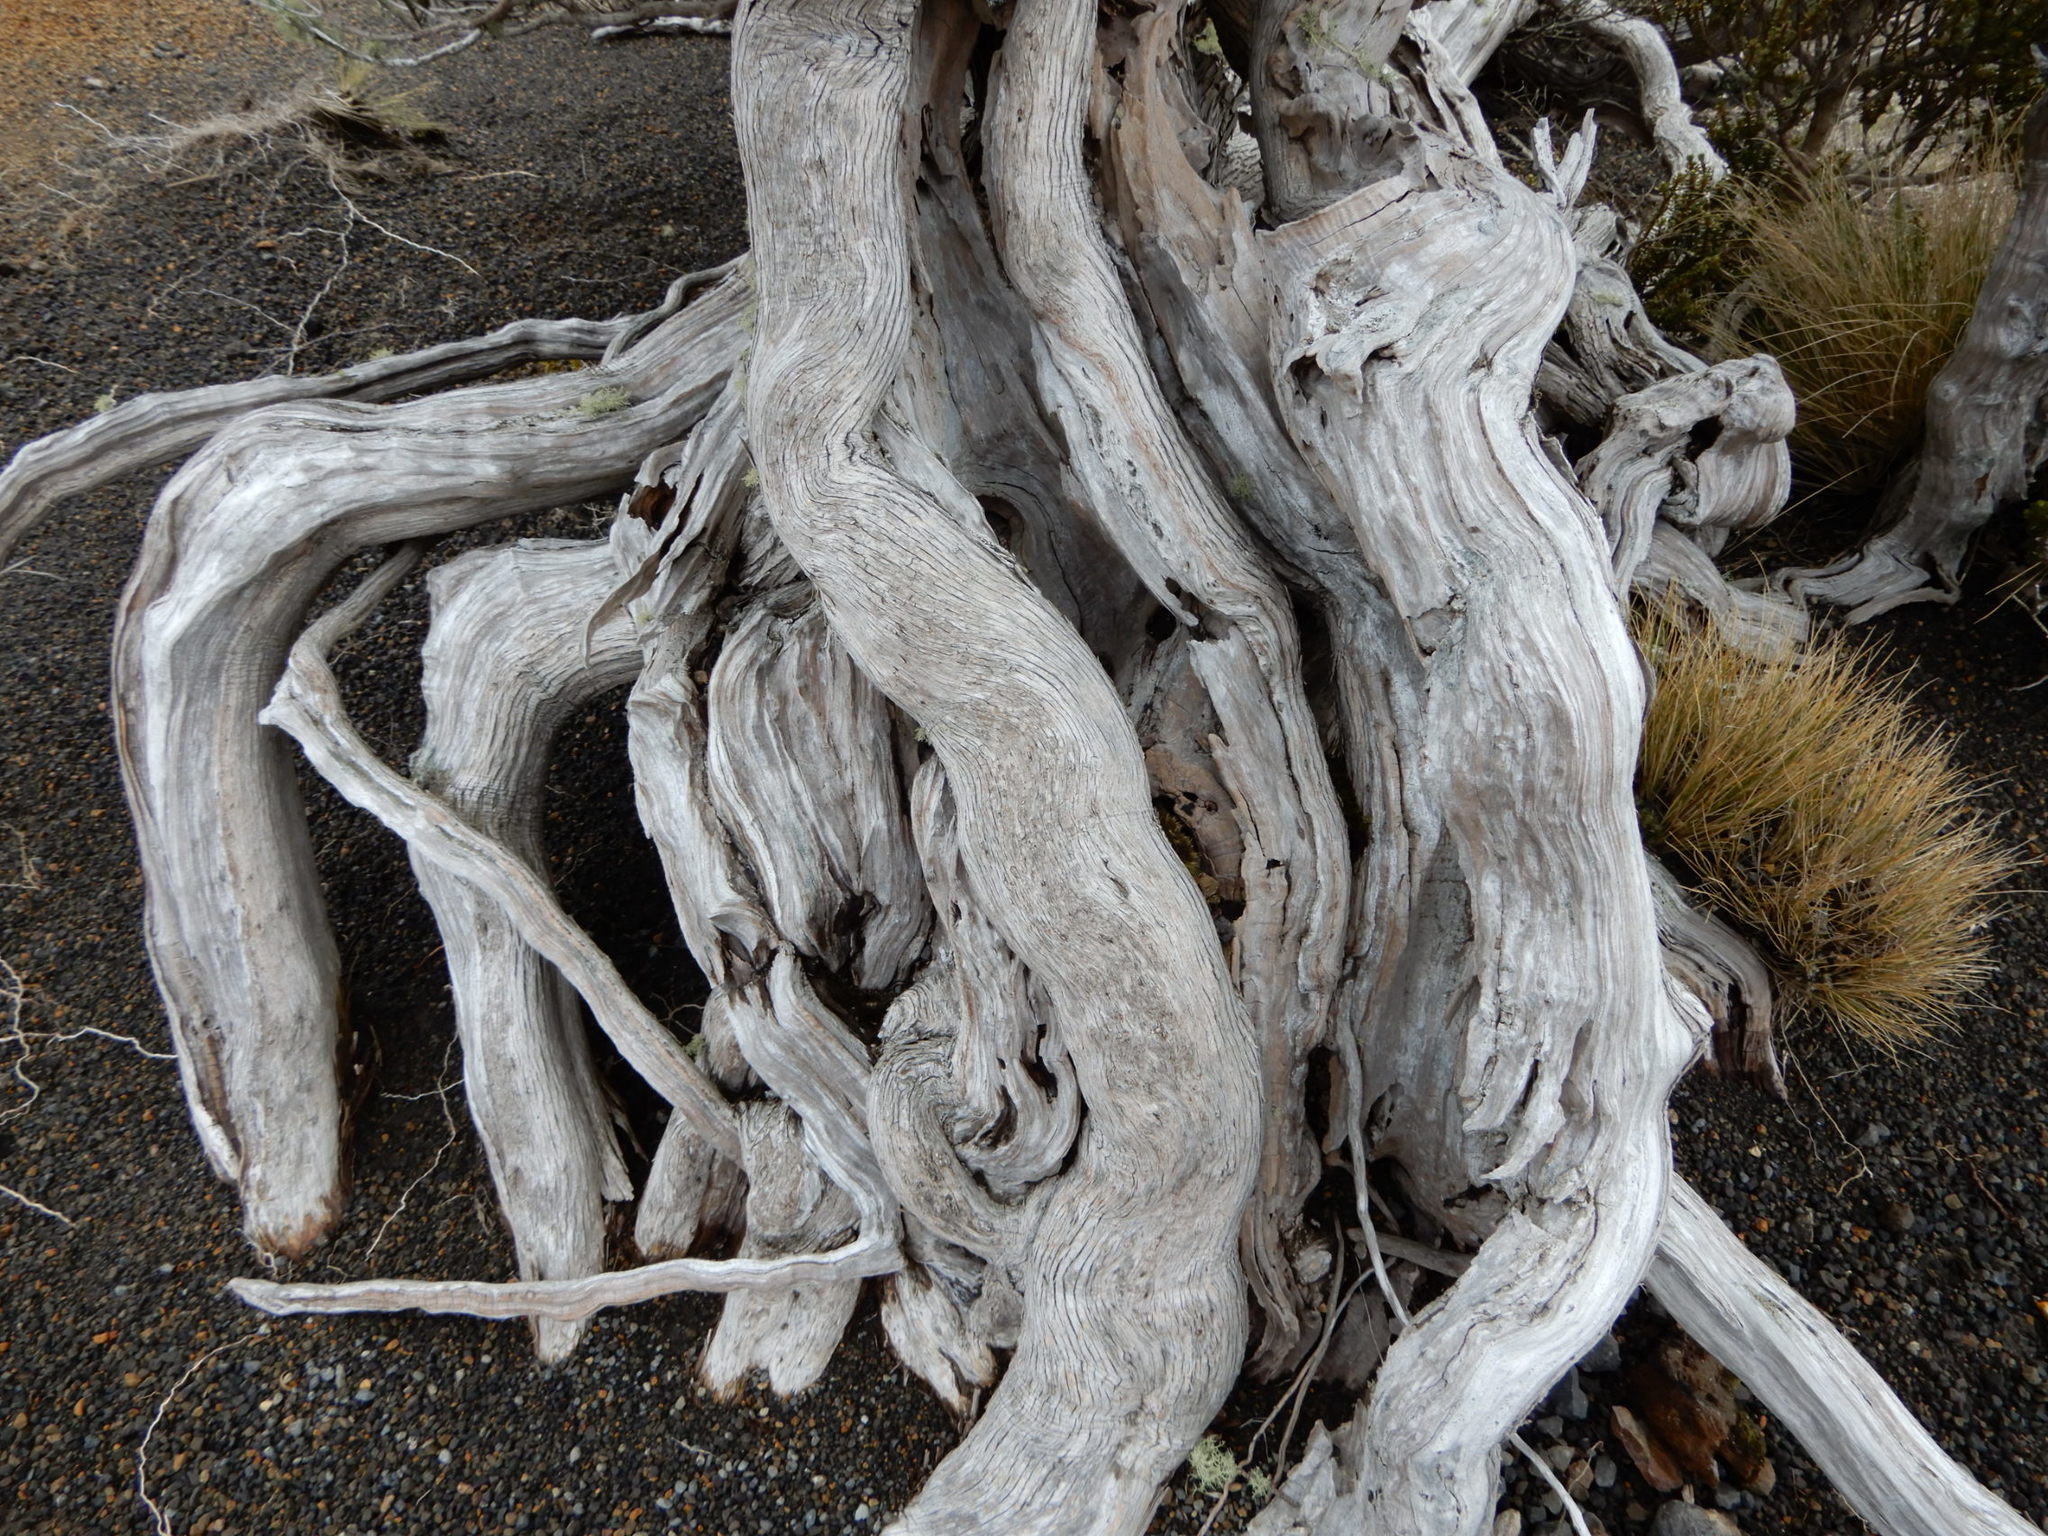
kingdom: Plantae
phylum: Tracheophyta
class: Magnoliopsida
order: Asterales
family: Asteraceae
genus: Olearia
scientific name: Olearia nummularifolia
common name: Sticky daisybush
